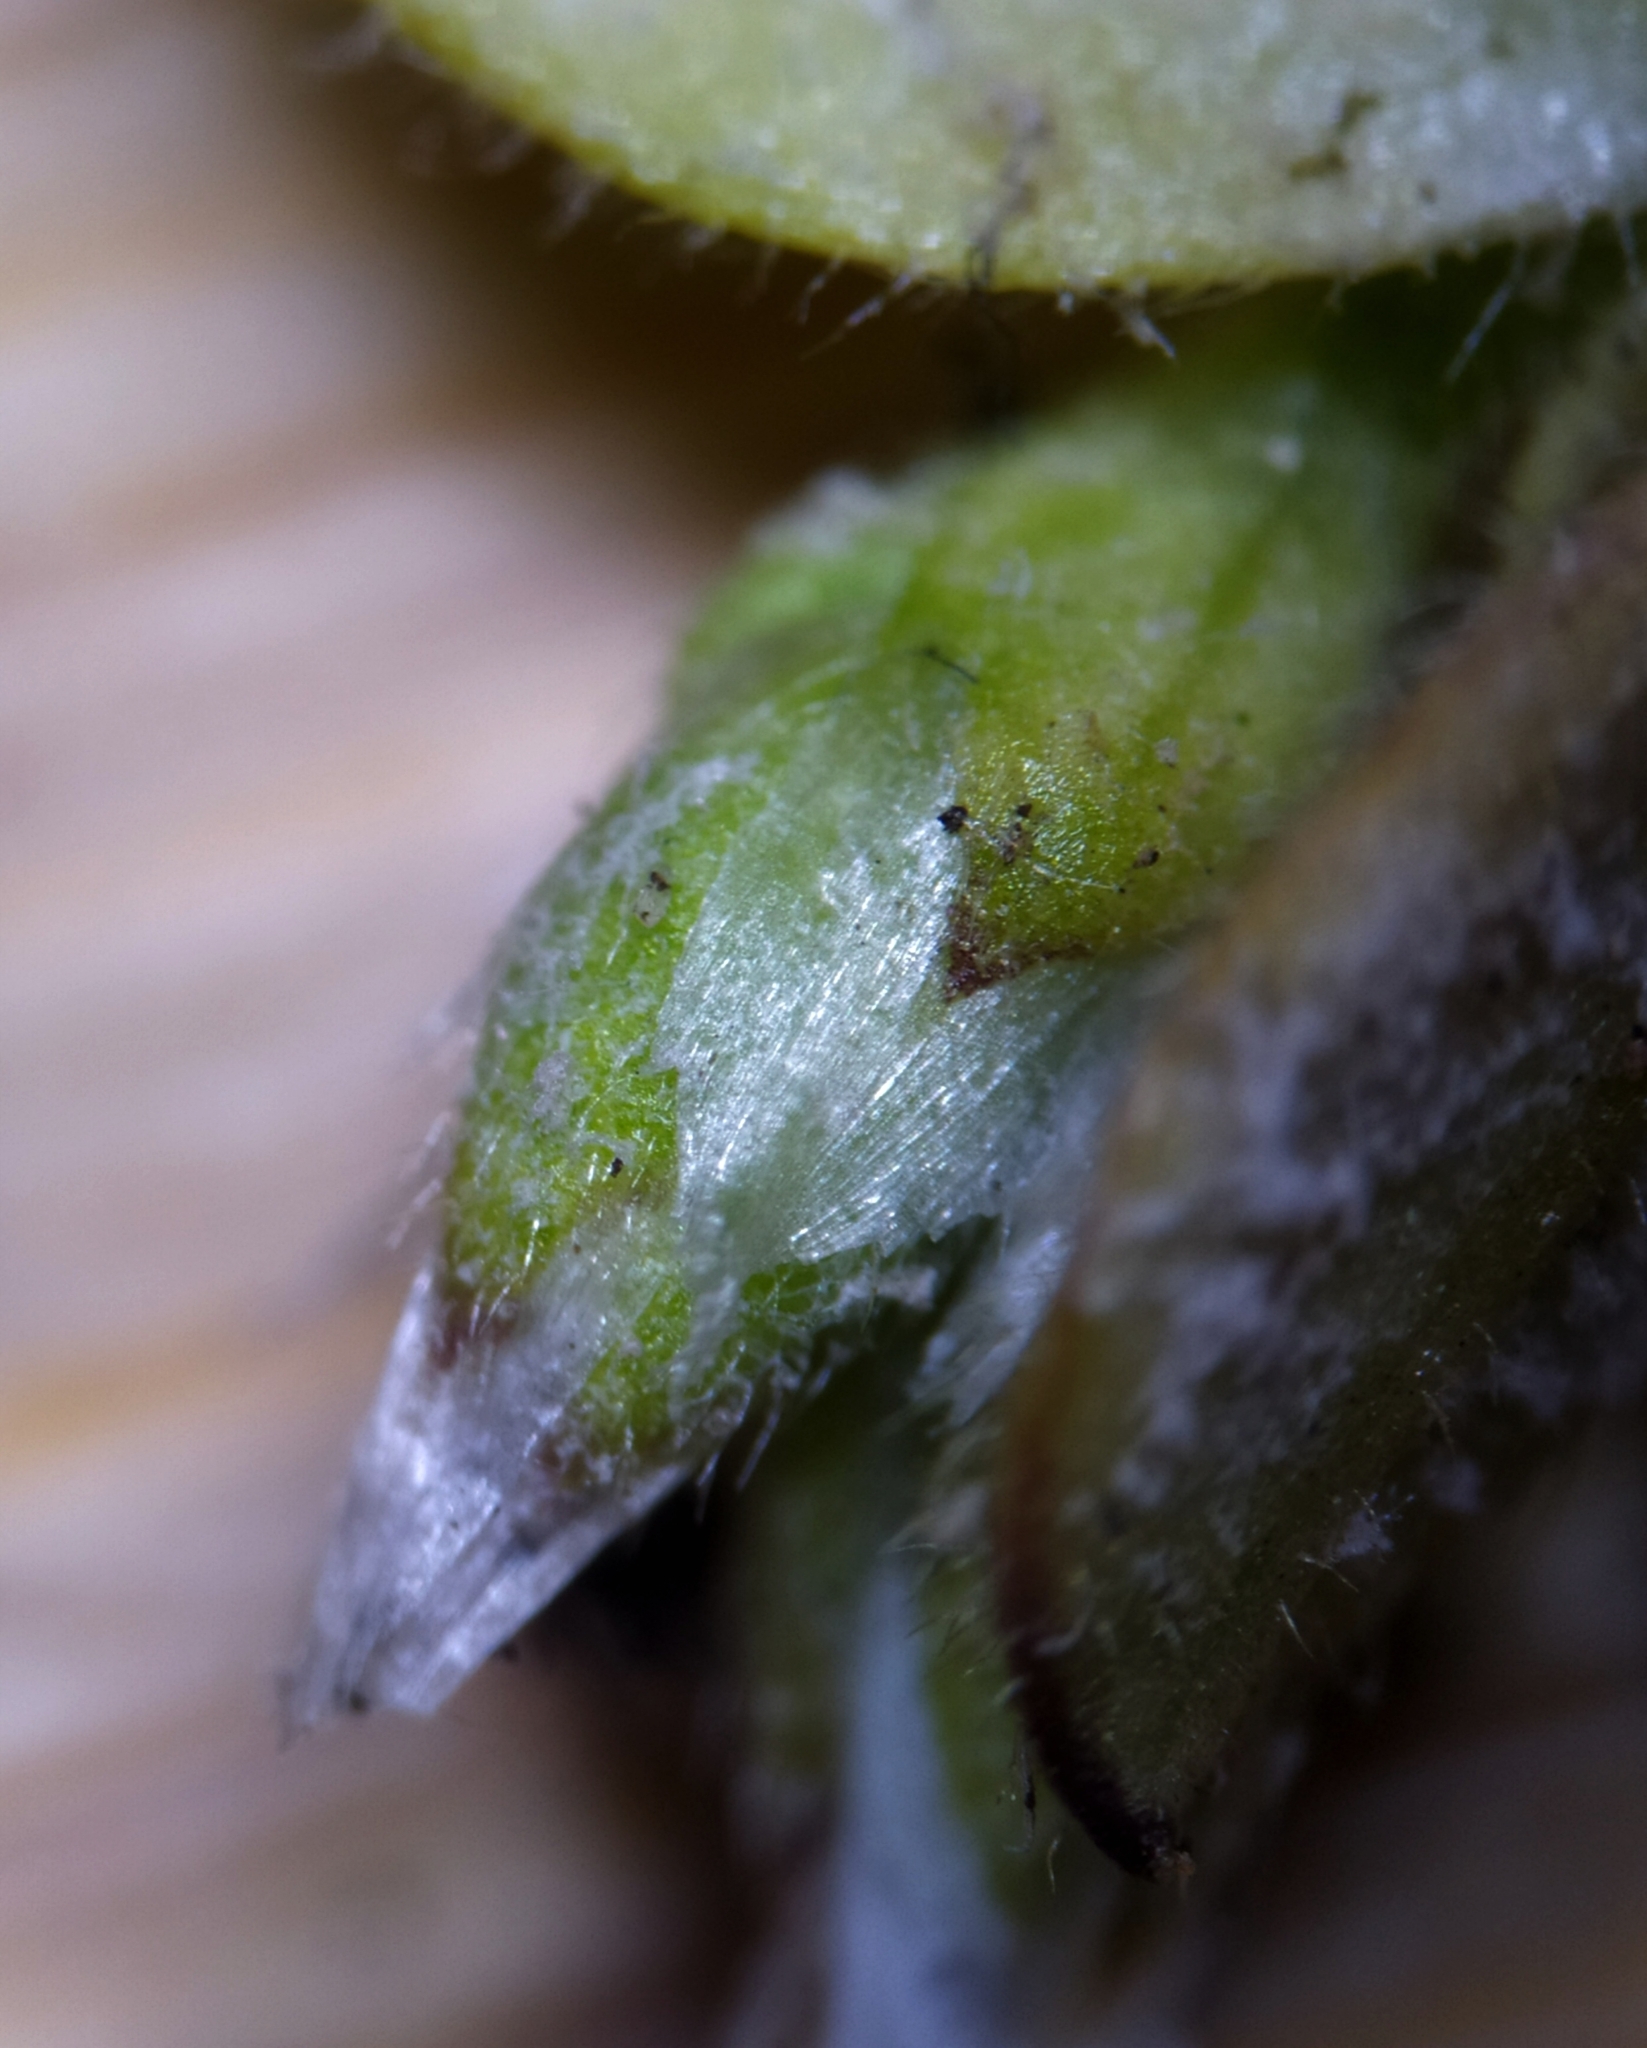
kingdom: Chromista
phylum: Oomycota
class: Peronosporea
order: Peronosporales
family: Peronosporaceae
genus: Peronospora
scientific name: Peronospora paula
